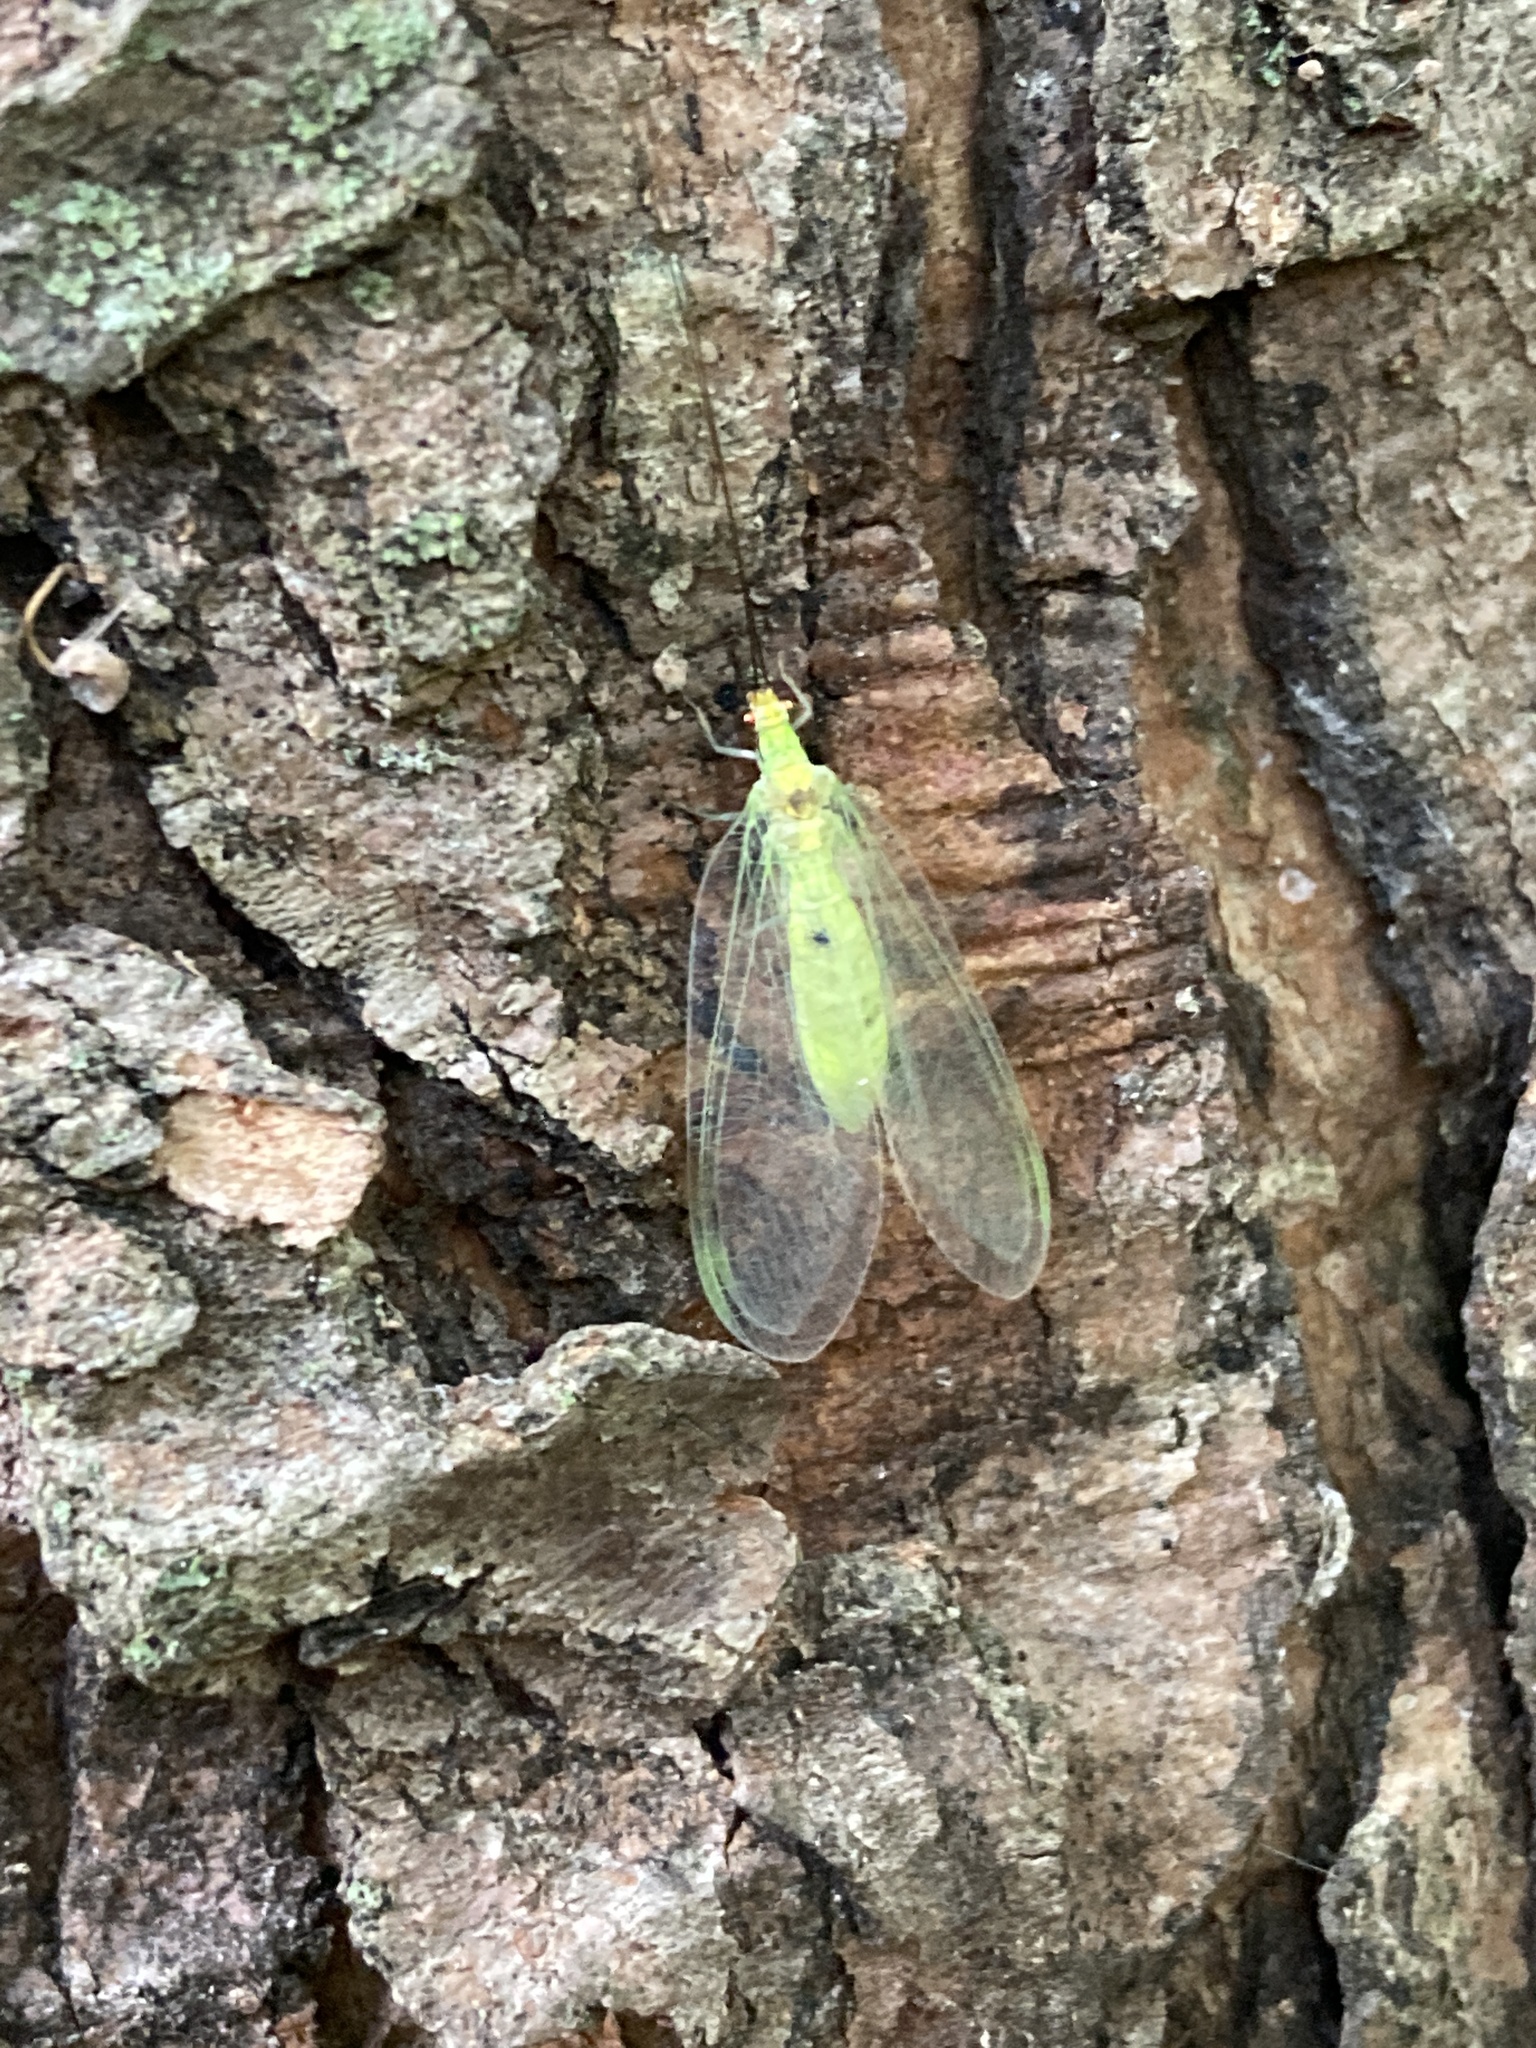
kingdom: Animalia
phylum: Arthropoda
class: Insecta
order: Neuroptera
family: Chrysopidae
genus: Leucochrysa
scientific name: Leucochrysa pavida
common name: Lichen-carrying green lacewing
